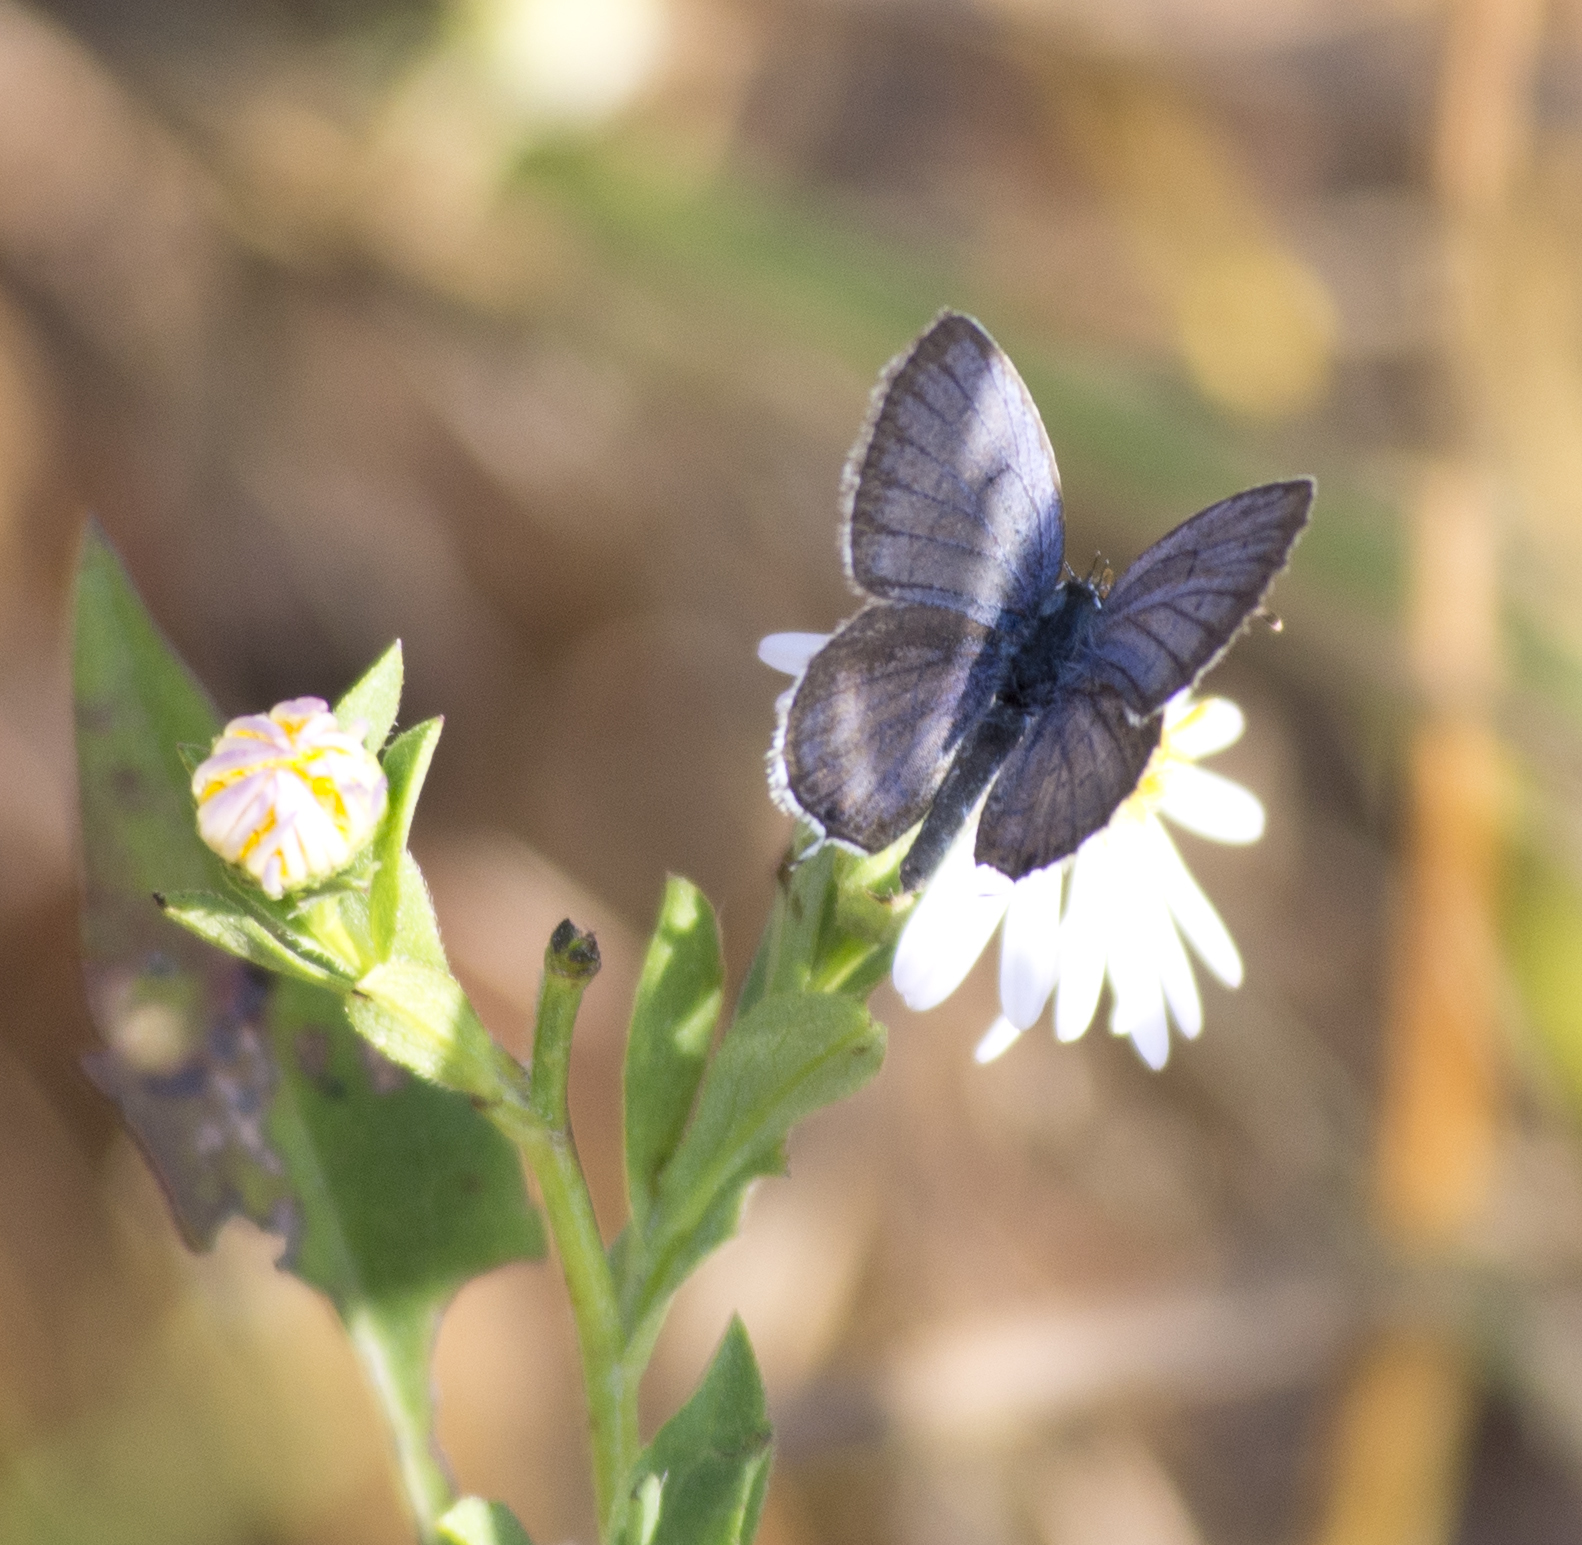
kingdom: Animalia
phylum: Arthropoda
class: Insecta
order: Lepidoptera
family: Lycaenidae
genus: Elkalyce
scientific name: Elkalyce comyntas
